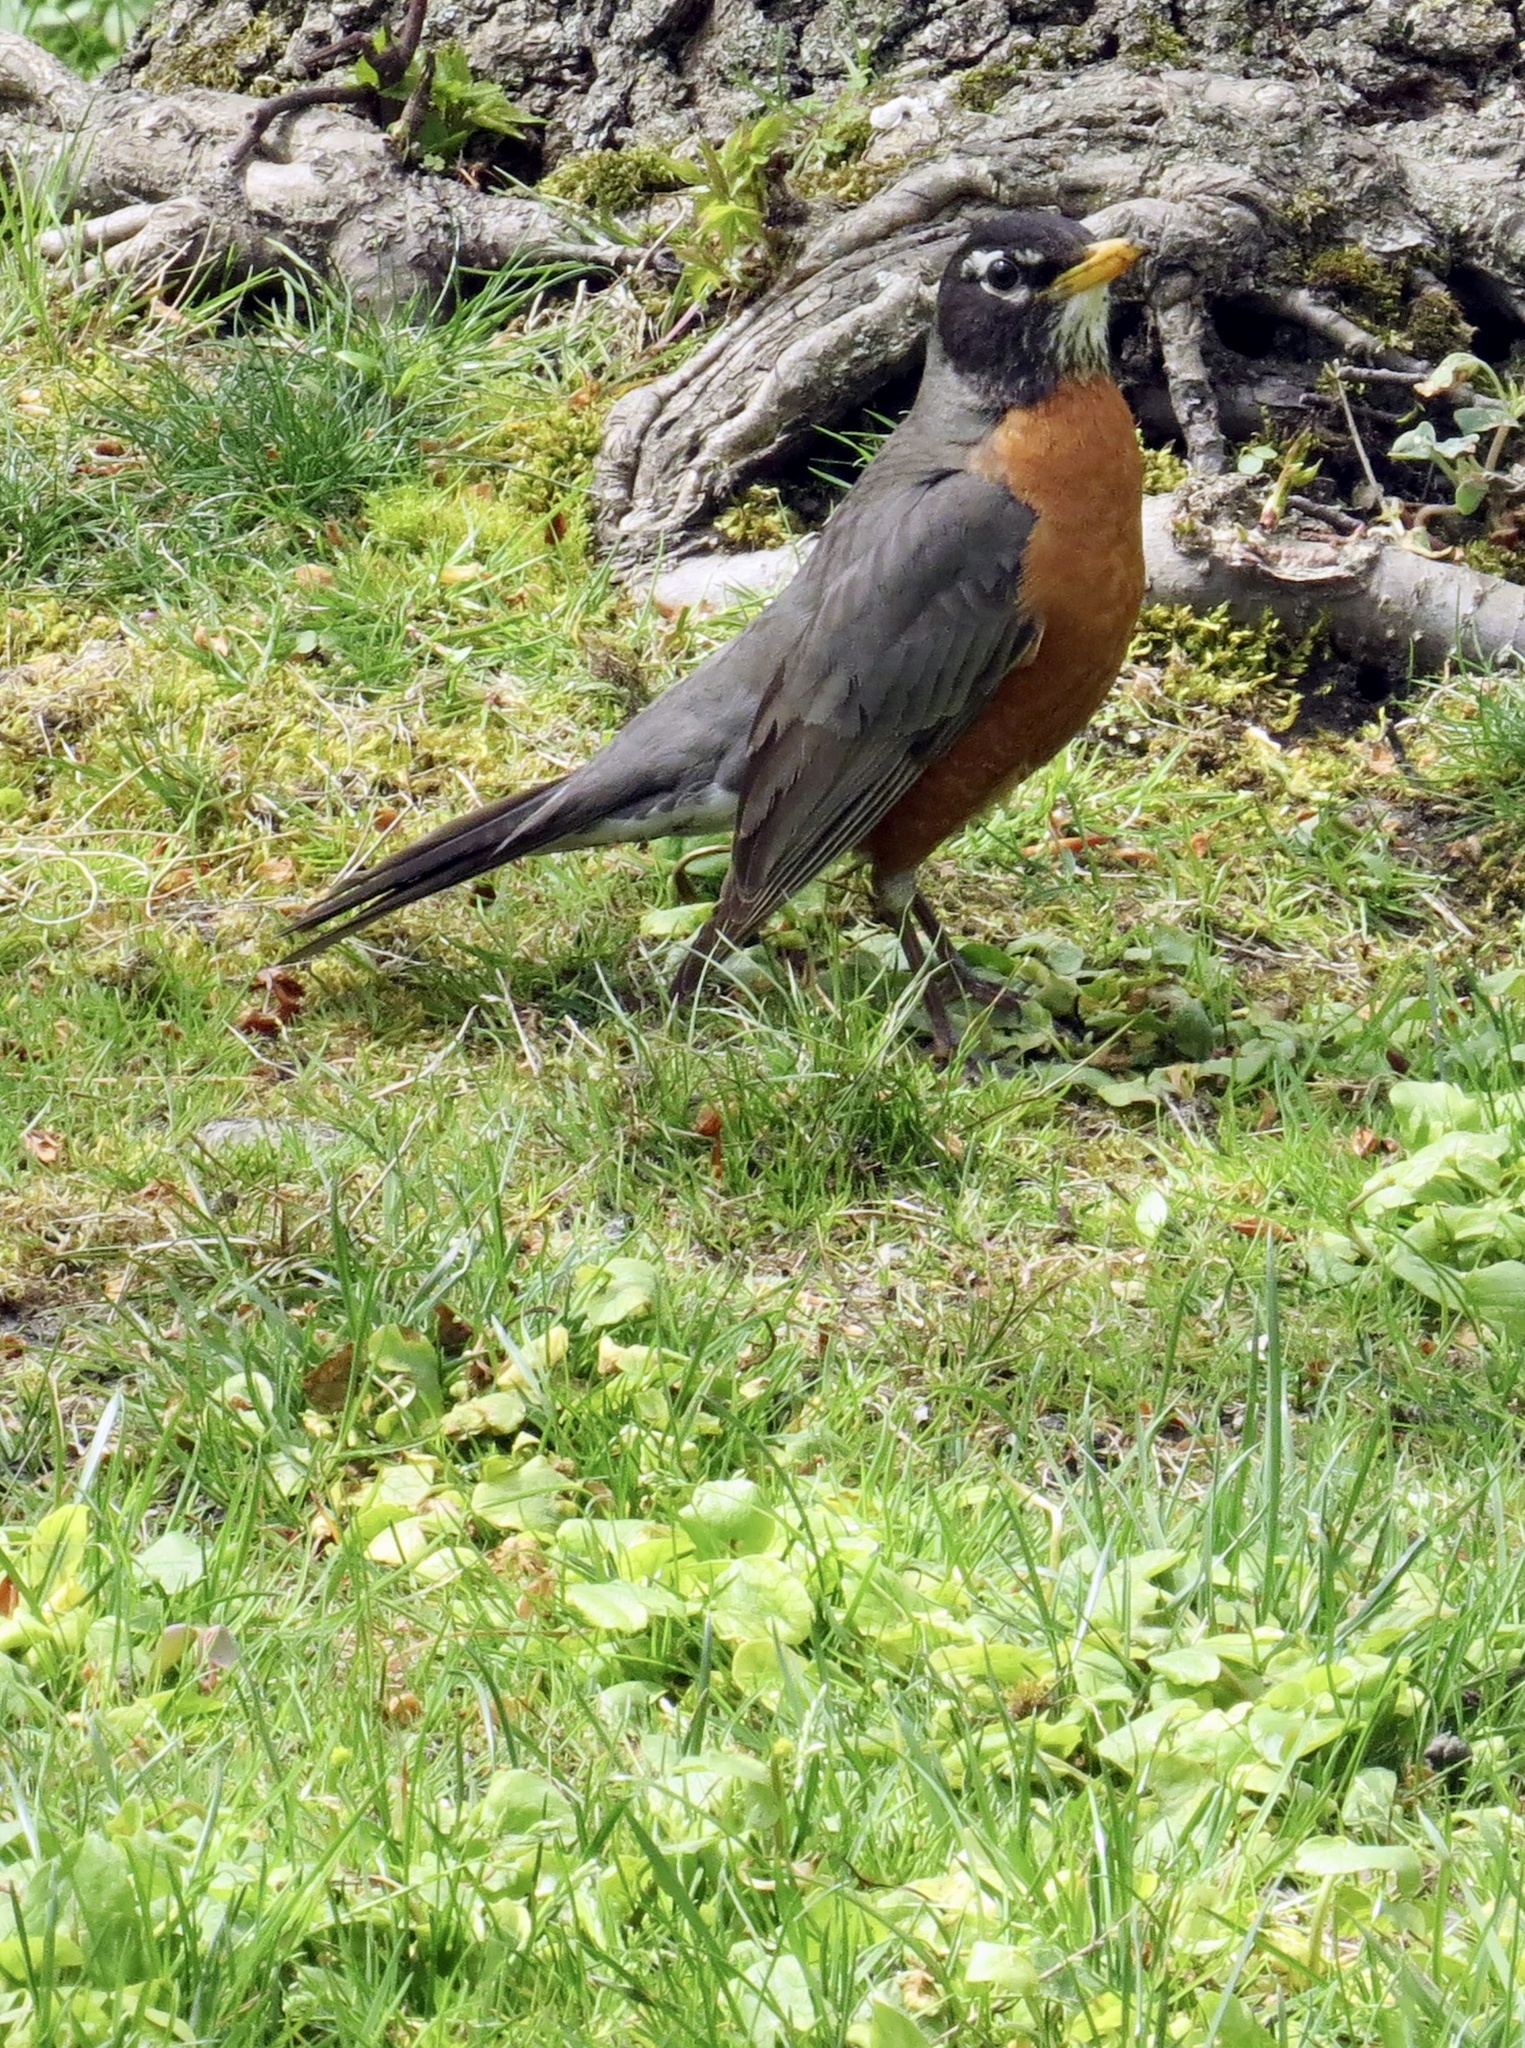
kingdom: Animalia
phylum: Chordata
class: Aves
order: Passeriformes
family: Turdidae
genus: Turdus
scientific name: Turdus migratorius
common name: American robin
